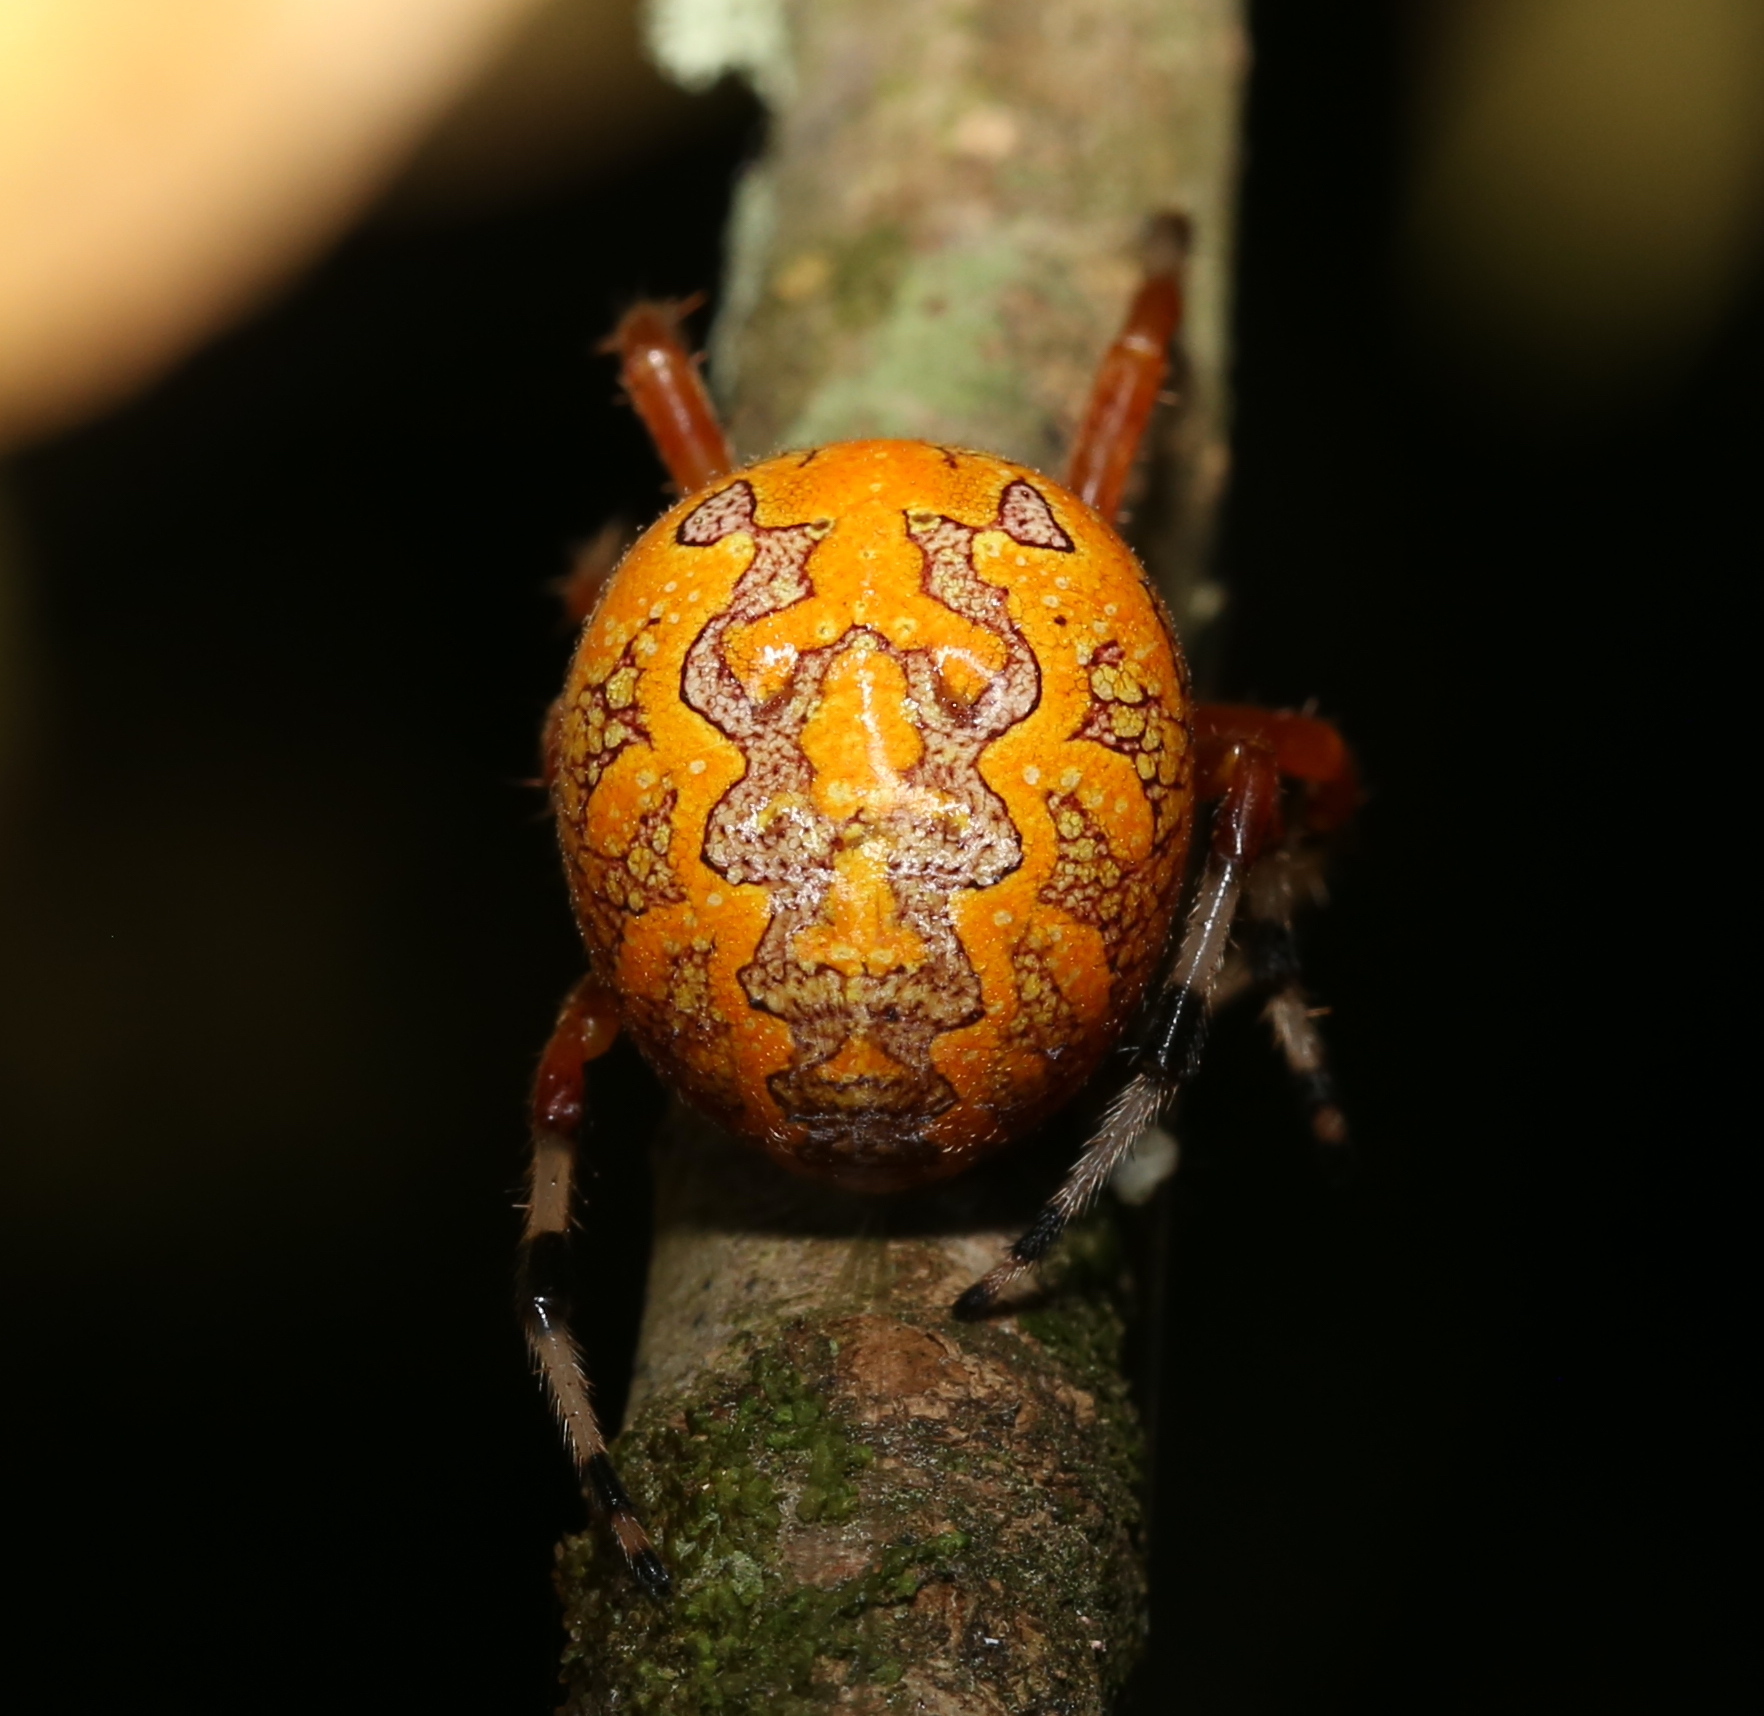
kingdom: Animalia
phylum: Arthropoda
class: Arachnida
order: Araneae
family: Araneidae
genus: Araneus
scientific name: Araneus marmoreus
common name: Marbled orbweaver
